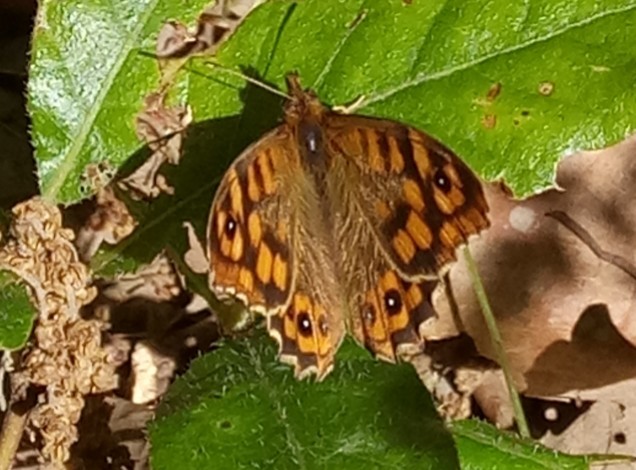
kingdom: Animalia
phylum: Arthropoda
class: Insecta
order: Lepidoptera
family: Nymphalidae
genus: Pararge
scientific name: Pararge aegeria
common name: Speckled wood
